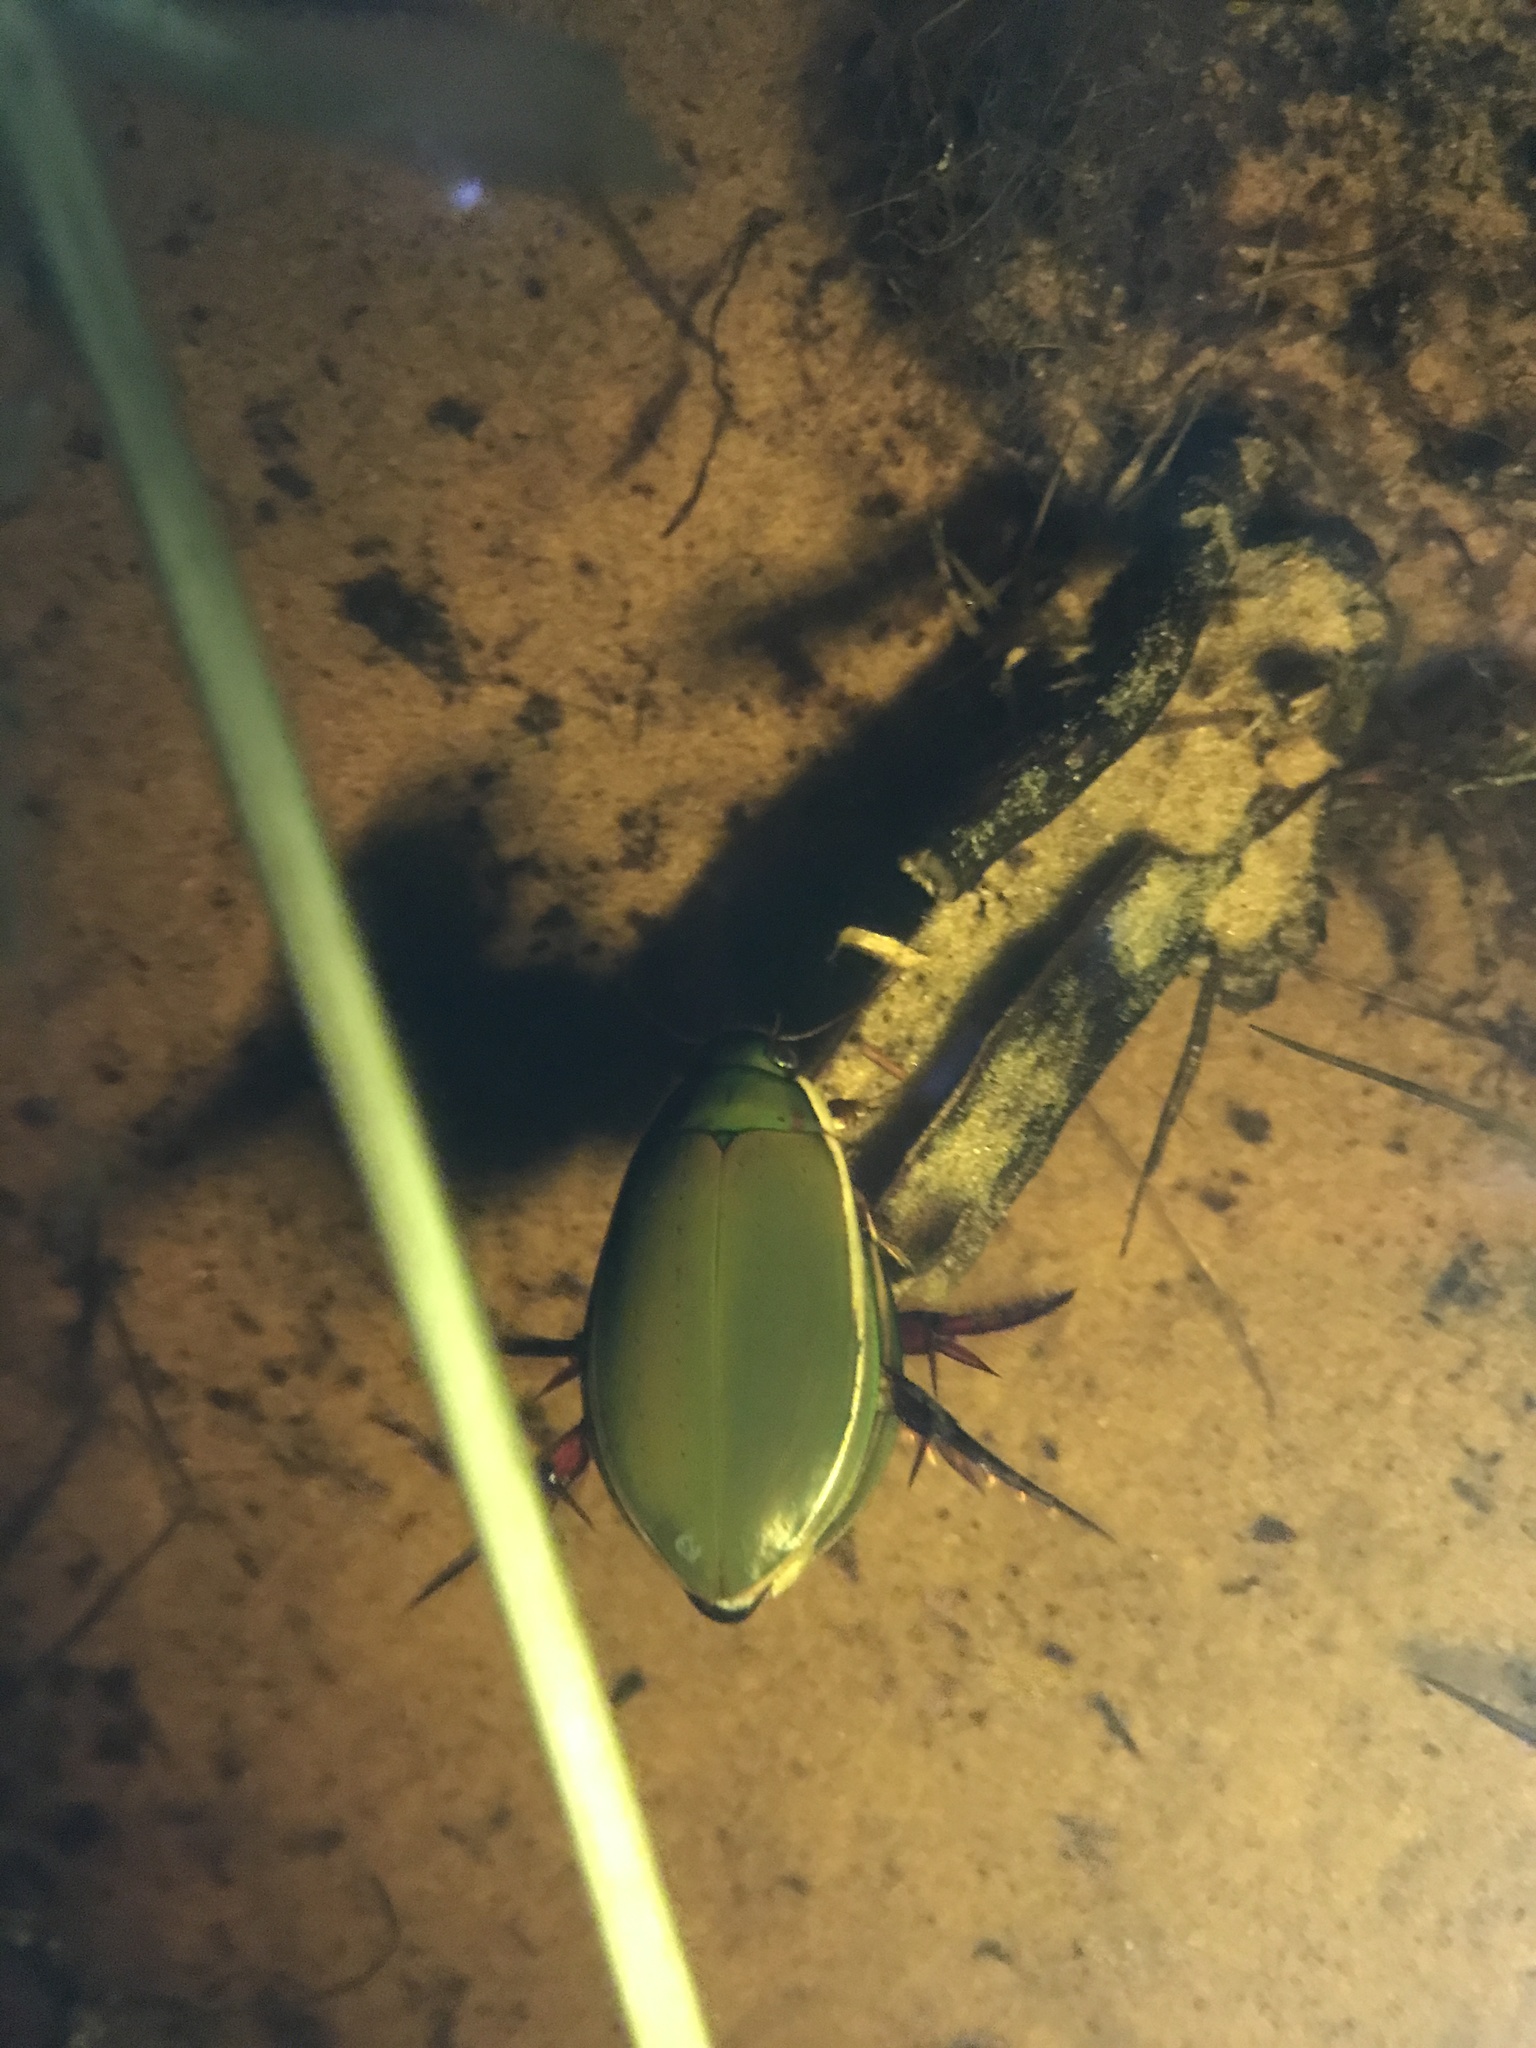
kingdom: Animalia
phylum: Arthropoda
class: Insecta
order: Coleoptera
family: Dytiscidae
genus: Cybister
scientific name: Cybister lateralimarginalis
